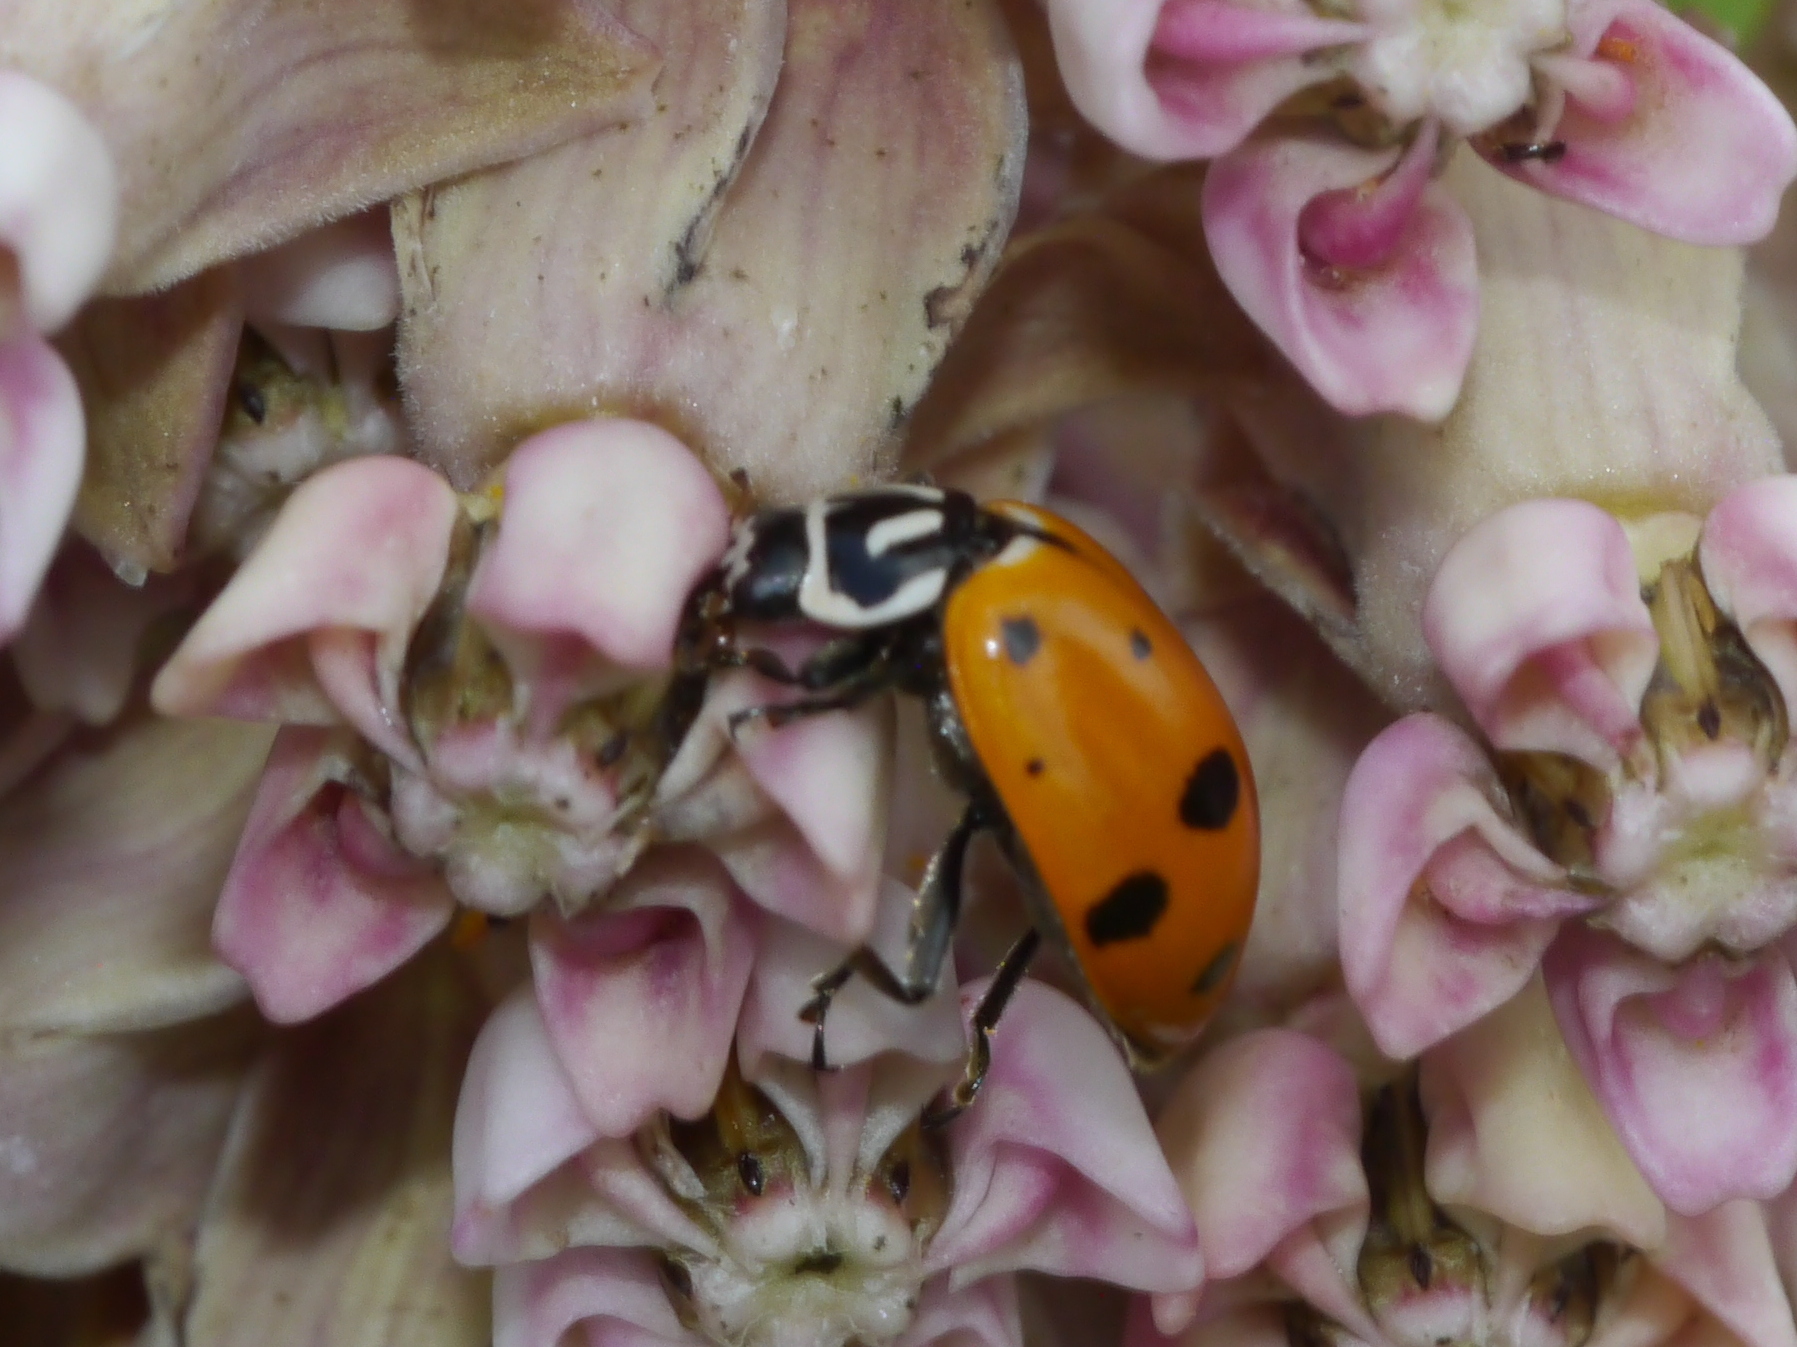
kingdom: Animalia
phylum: Arthropoda
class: Insecta
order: Coleoptera
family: Coccinellidae
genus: Hippodamia
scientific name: Hippodamia convergens
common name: Convergent lady beetle
